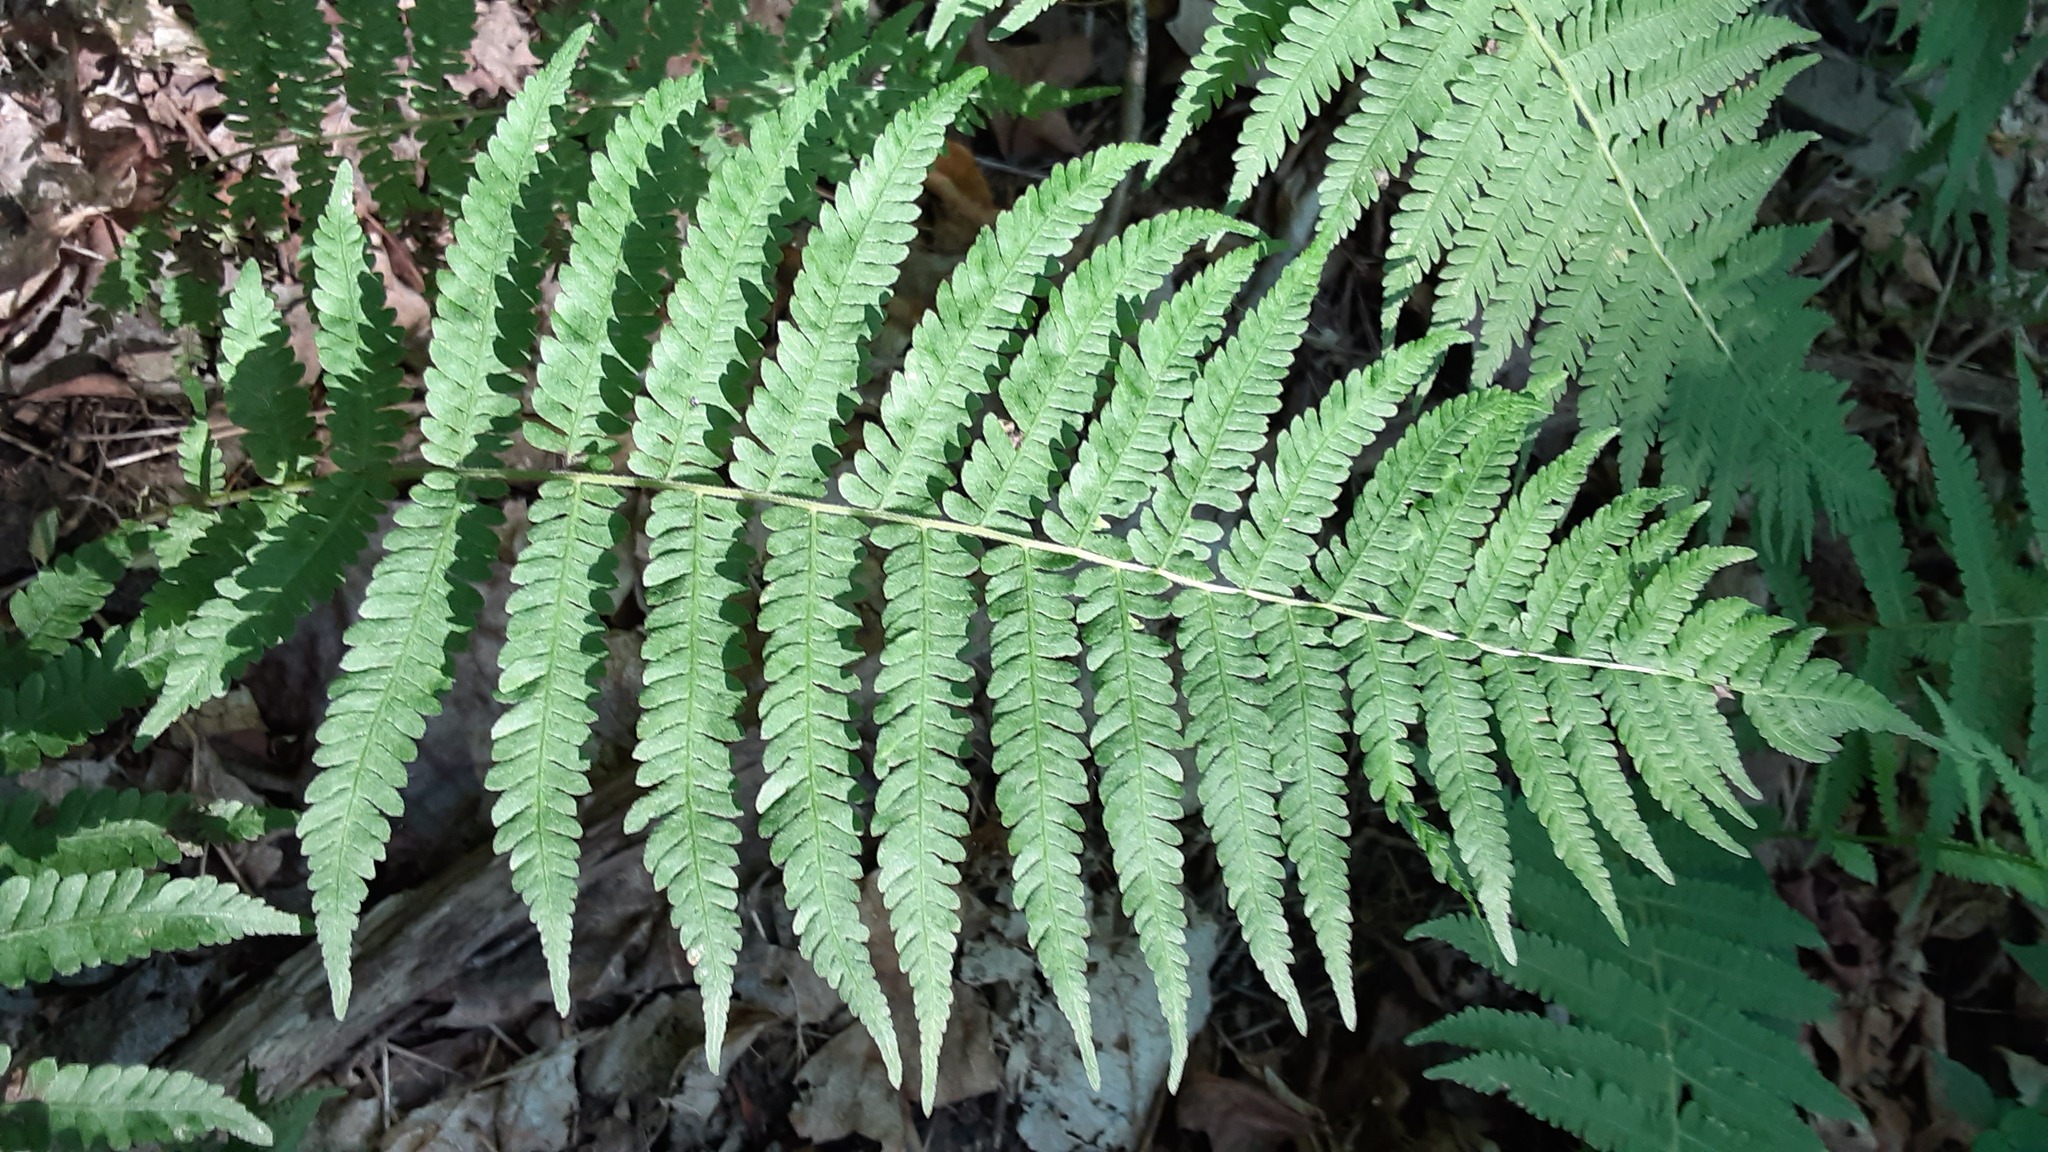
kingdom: Plantae
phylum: Tracheophyta
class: Polypodiopsida
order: Polypodiales
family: Thelypteridaceae
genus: Amauropelta
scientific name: Amauropelta noveboracensis
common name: New york fern
